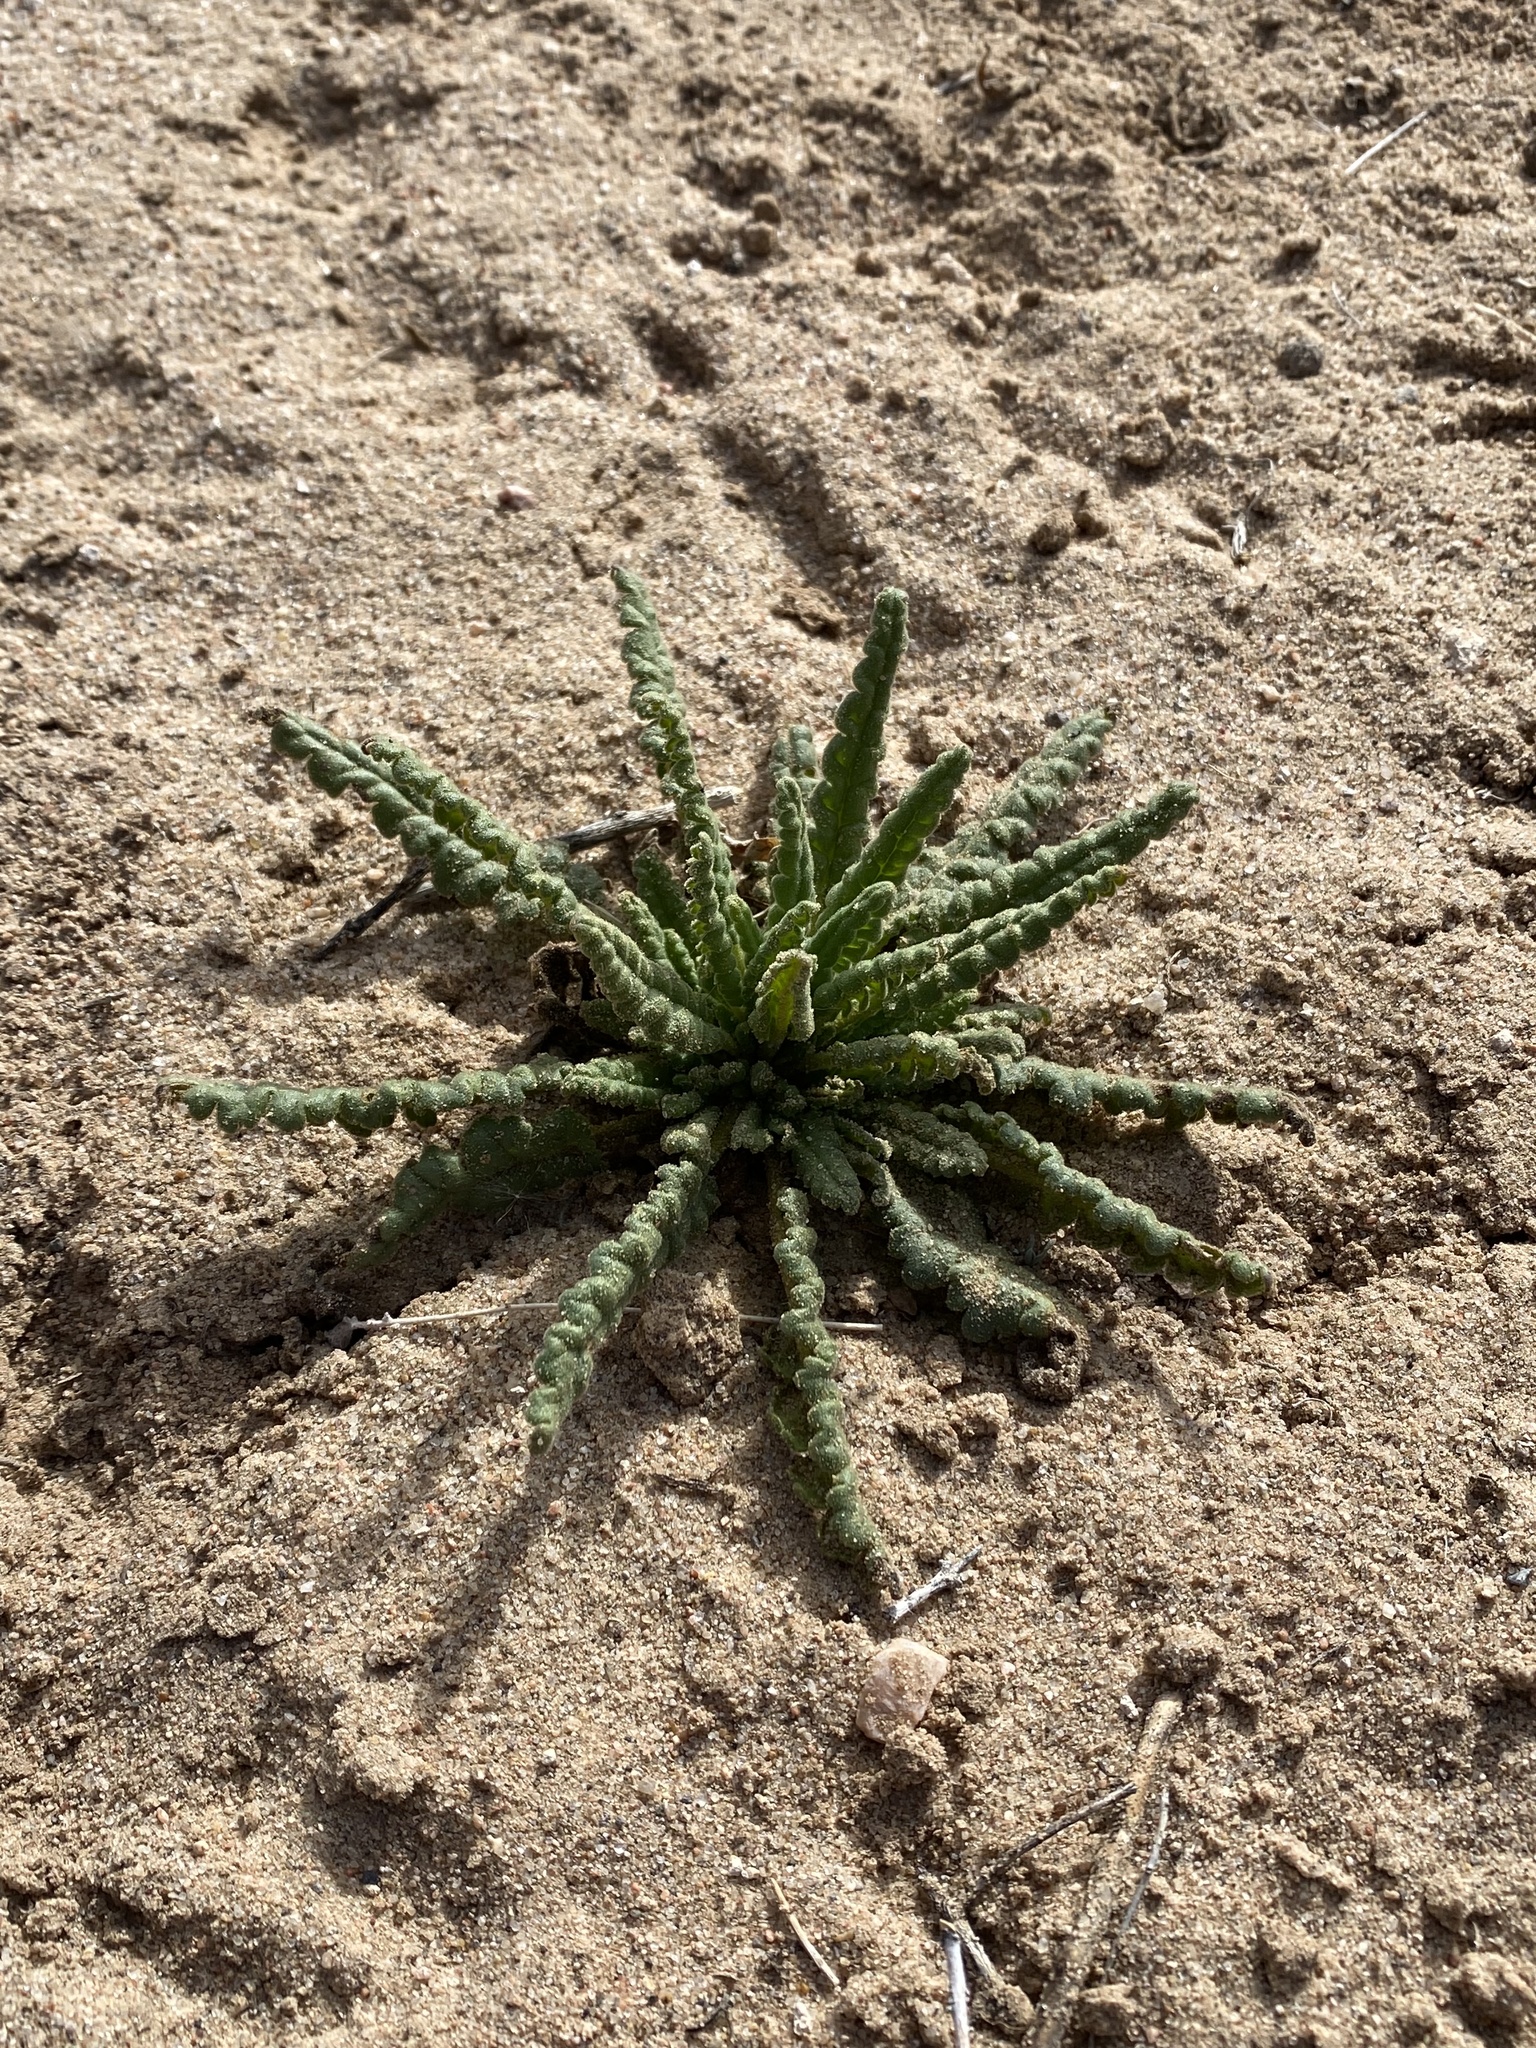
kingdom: Plantae
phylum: Tracheophyta
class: Magnoliopsida
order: Boraginales
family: Hydrophyllaceae
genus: Phacelia
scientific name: Phacelia integrifolia
